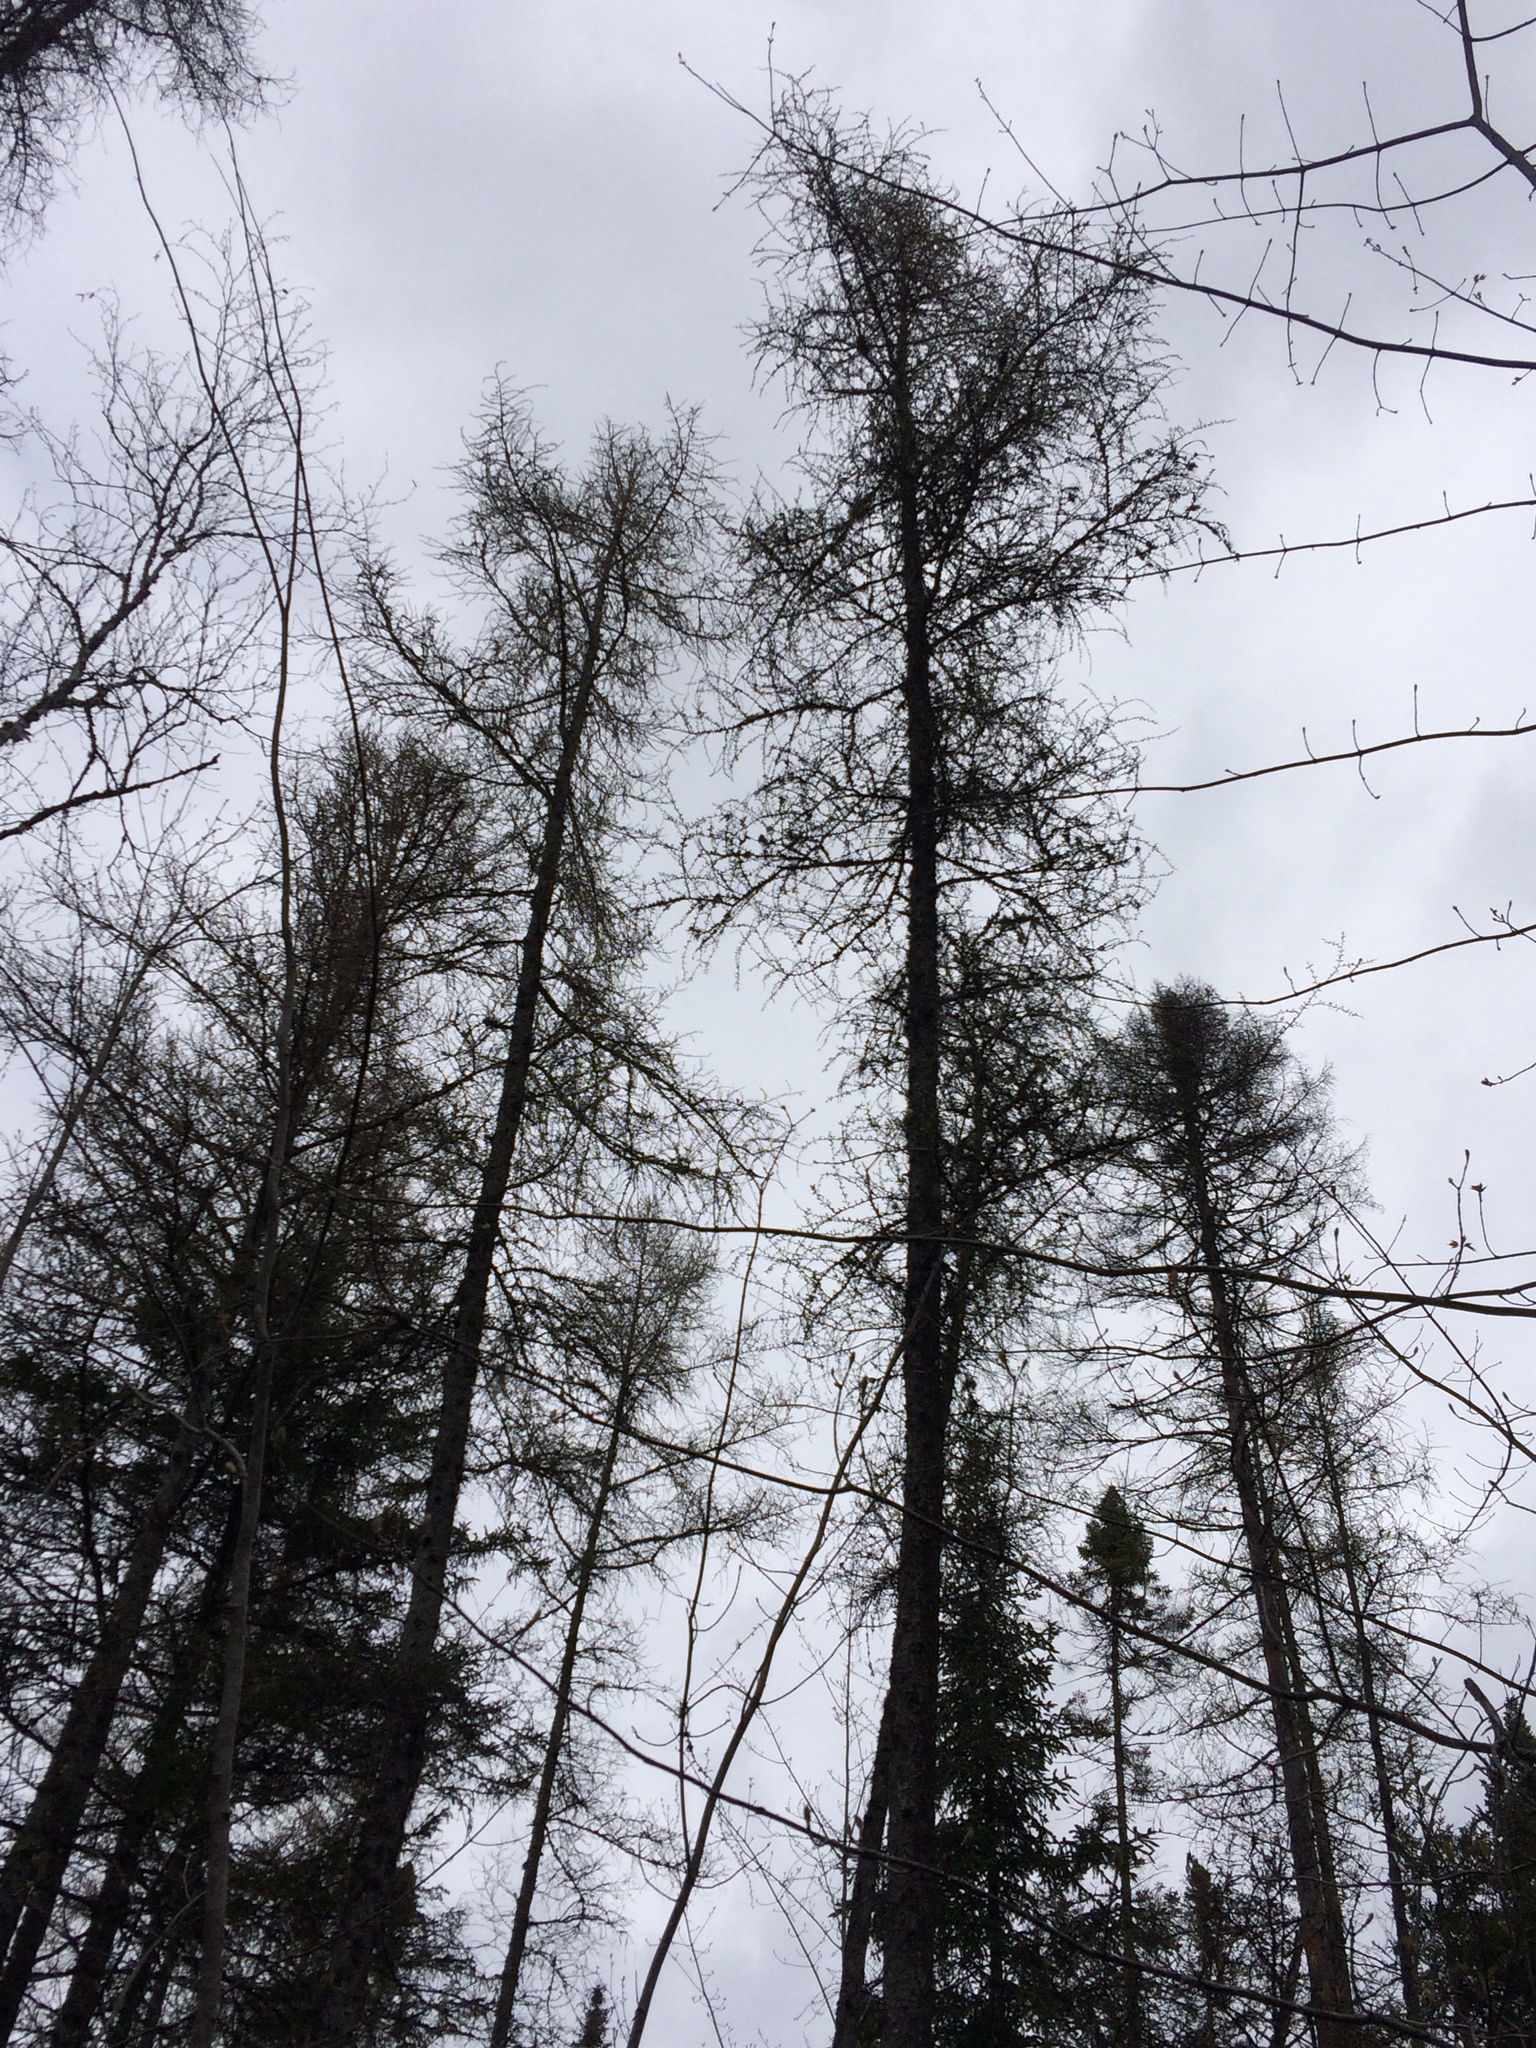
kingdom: Plantae
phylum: Tracheophyta
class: Pinopsida
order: Pinales
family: Pinaceae
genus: Larix
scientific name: Larix laricina
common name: American larch
